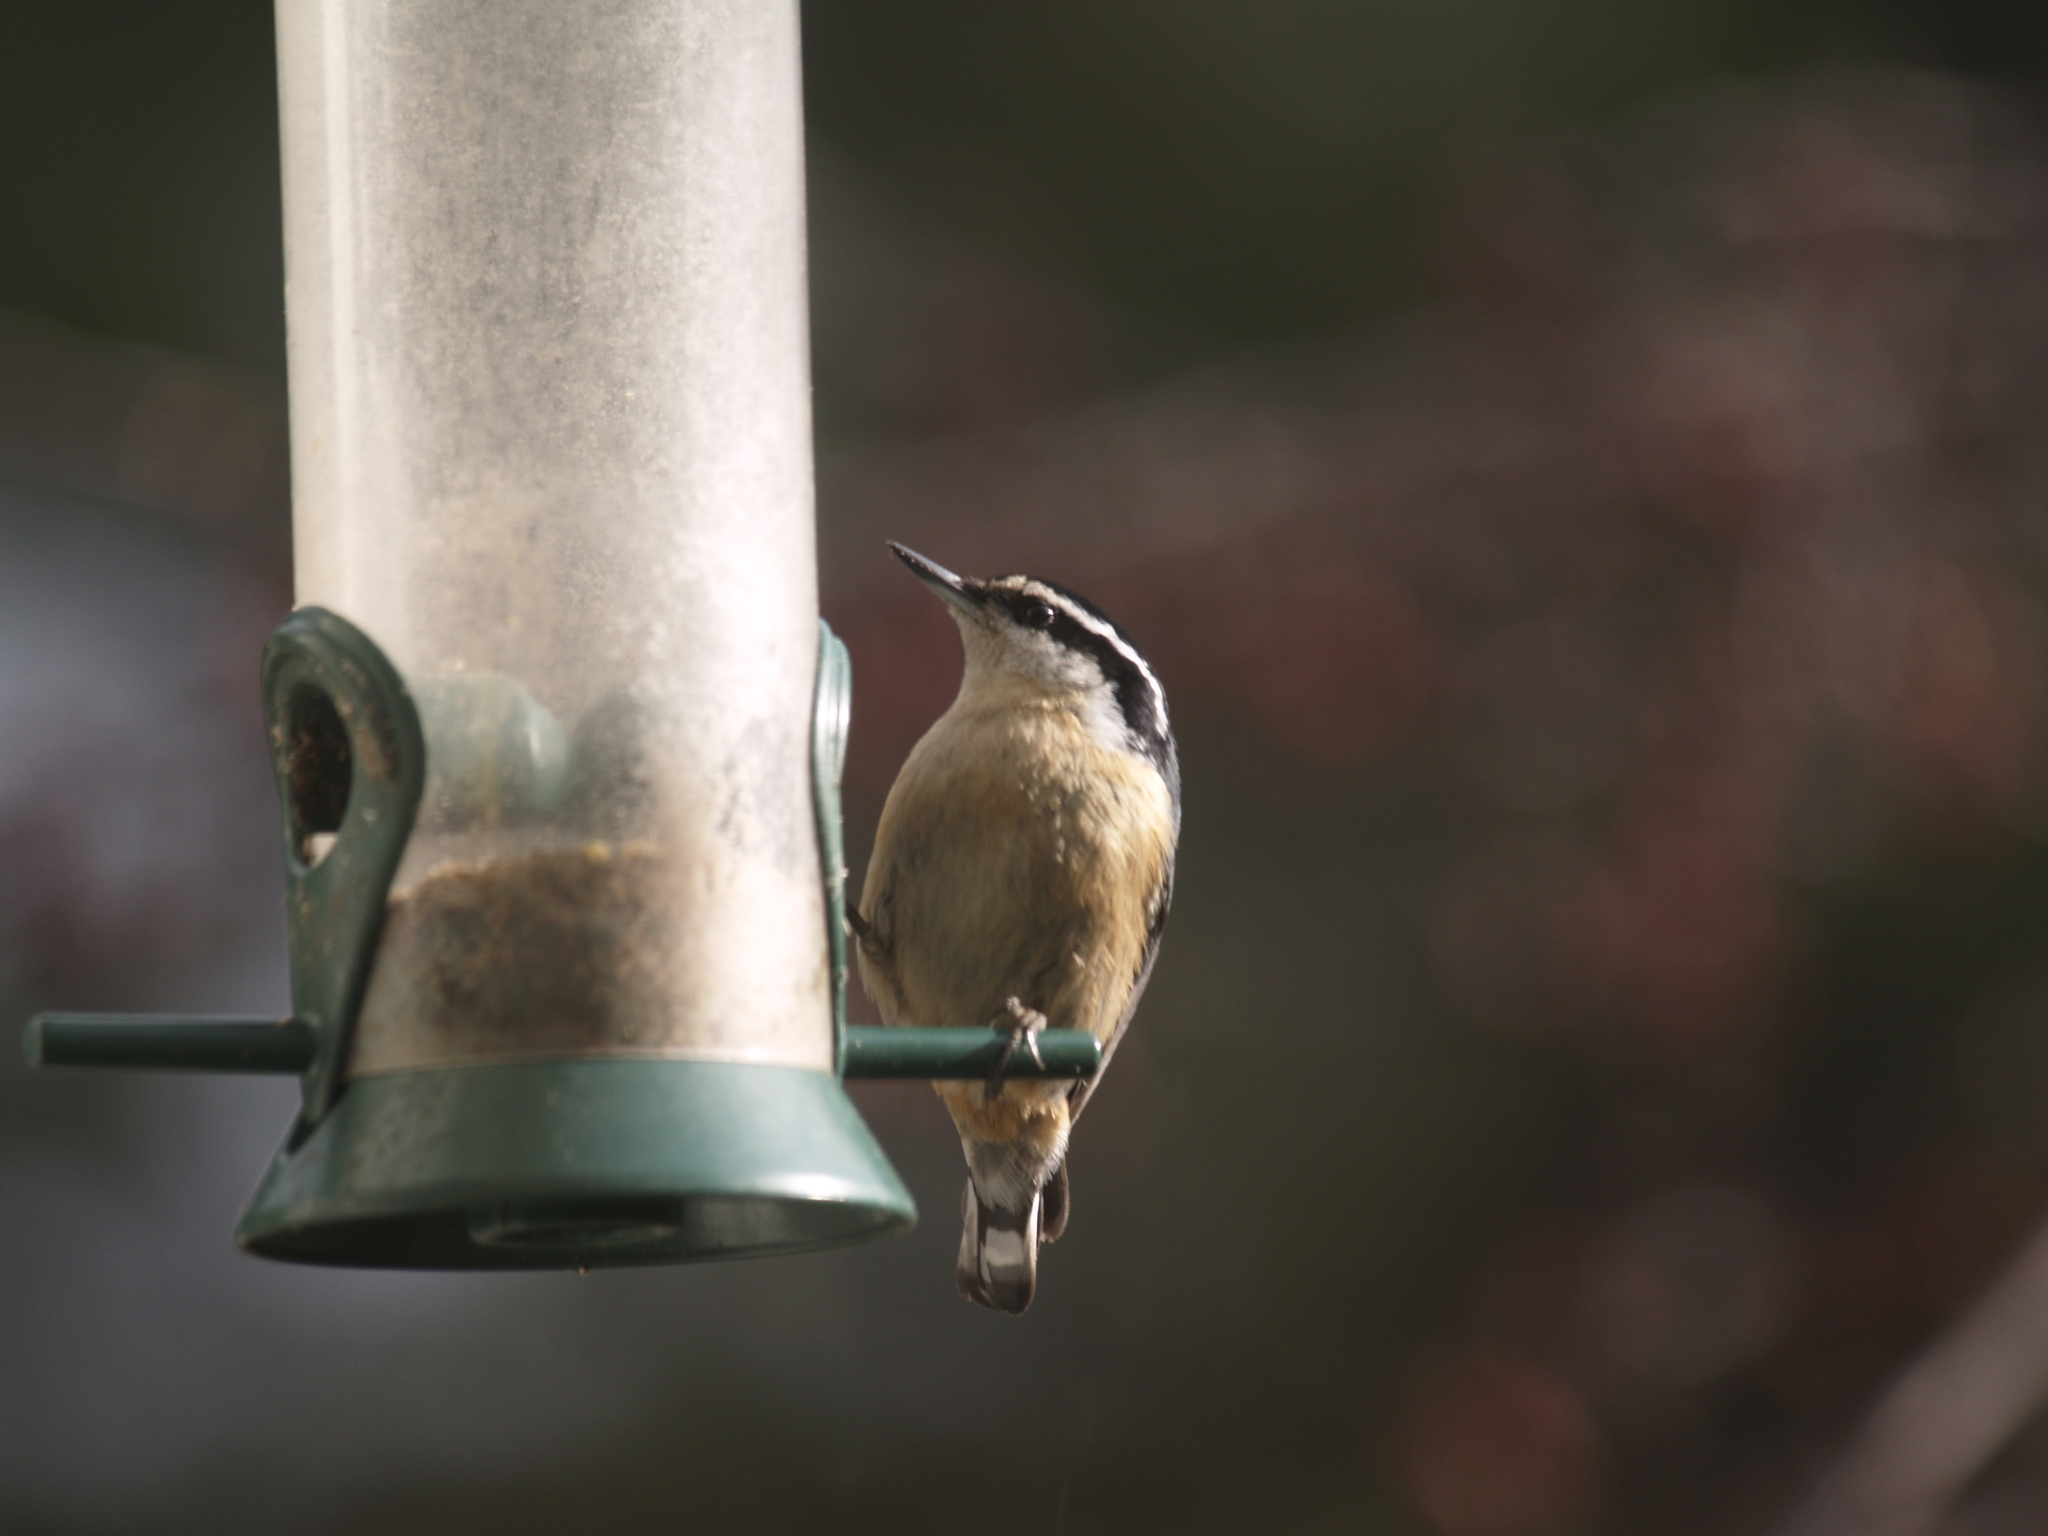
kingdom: Animalia
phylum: Chordata
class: Aves
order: Passeriformes
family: Sittidae
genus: Sitta
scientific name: Sitta canadensis
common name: Red-breasted nuthatch
